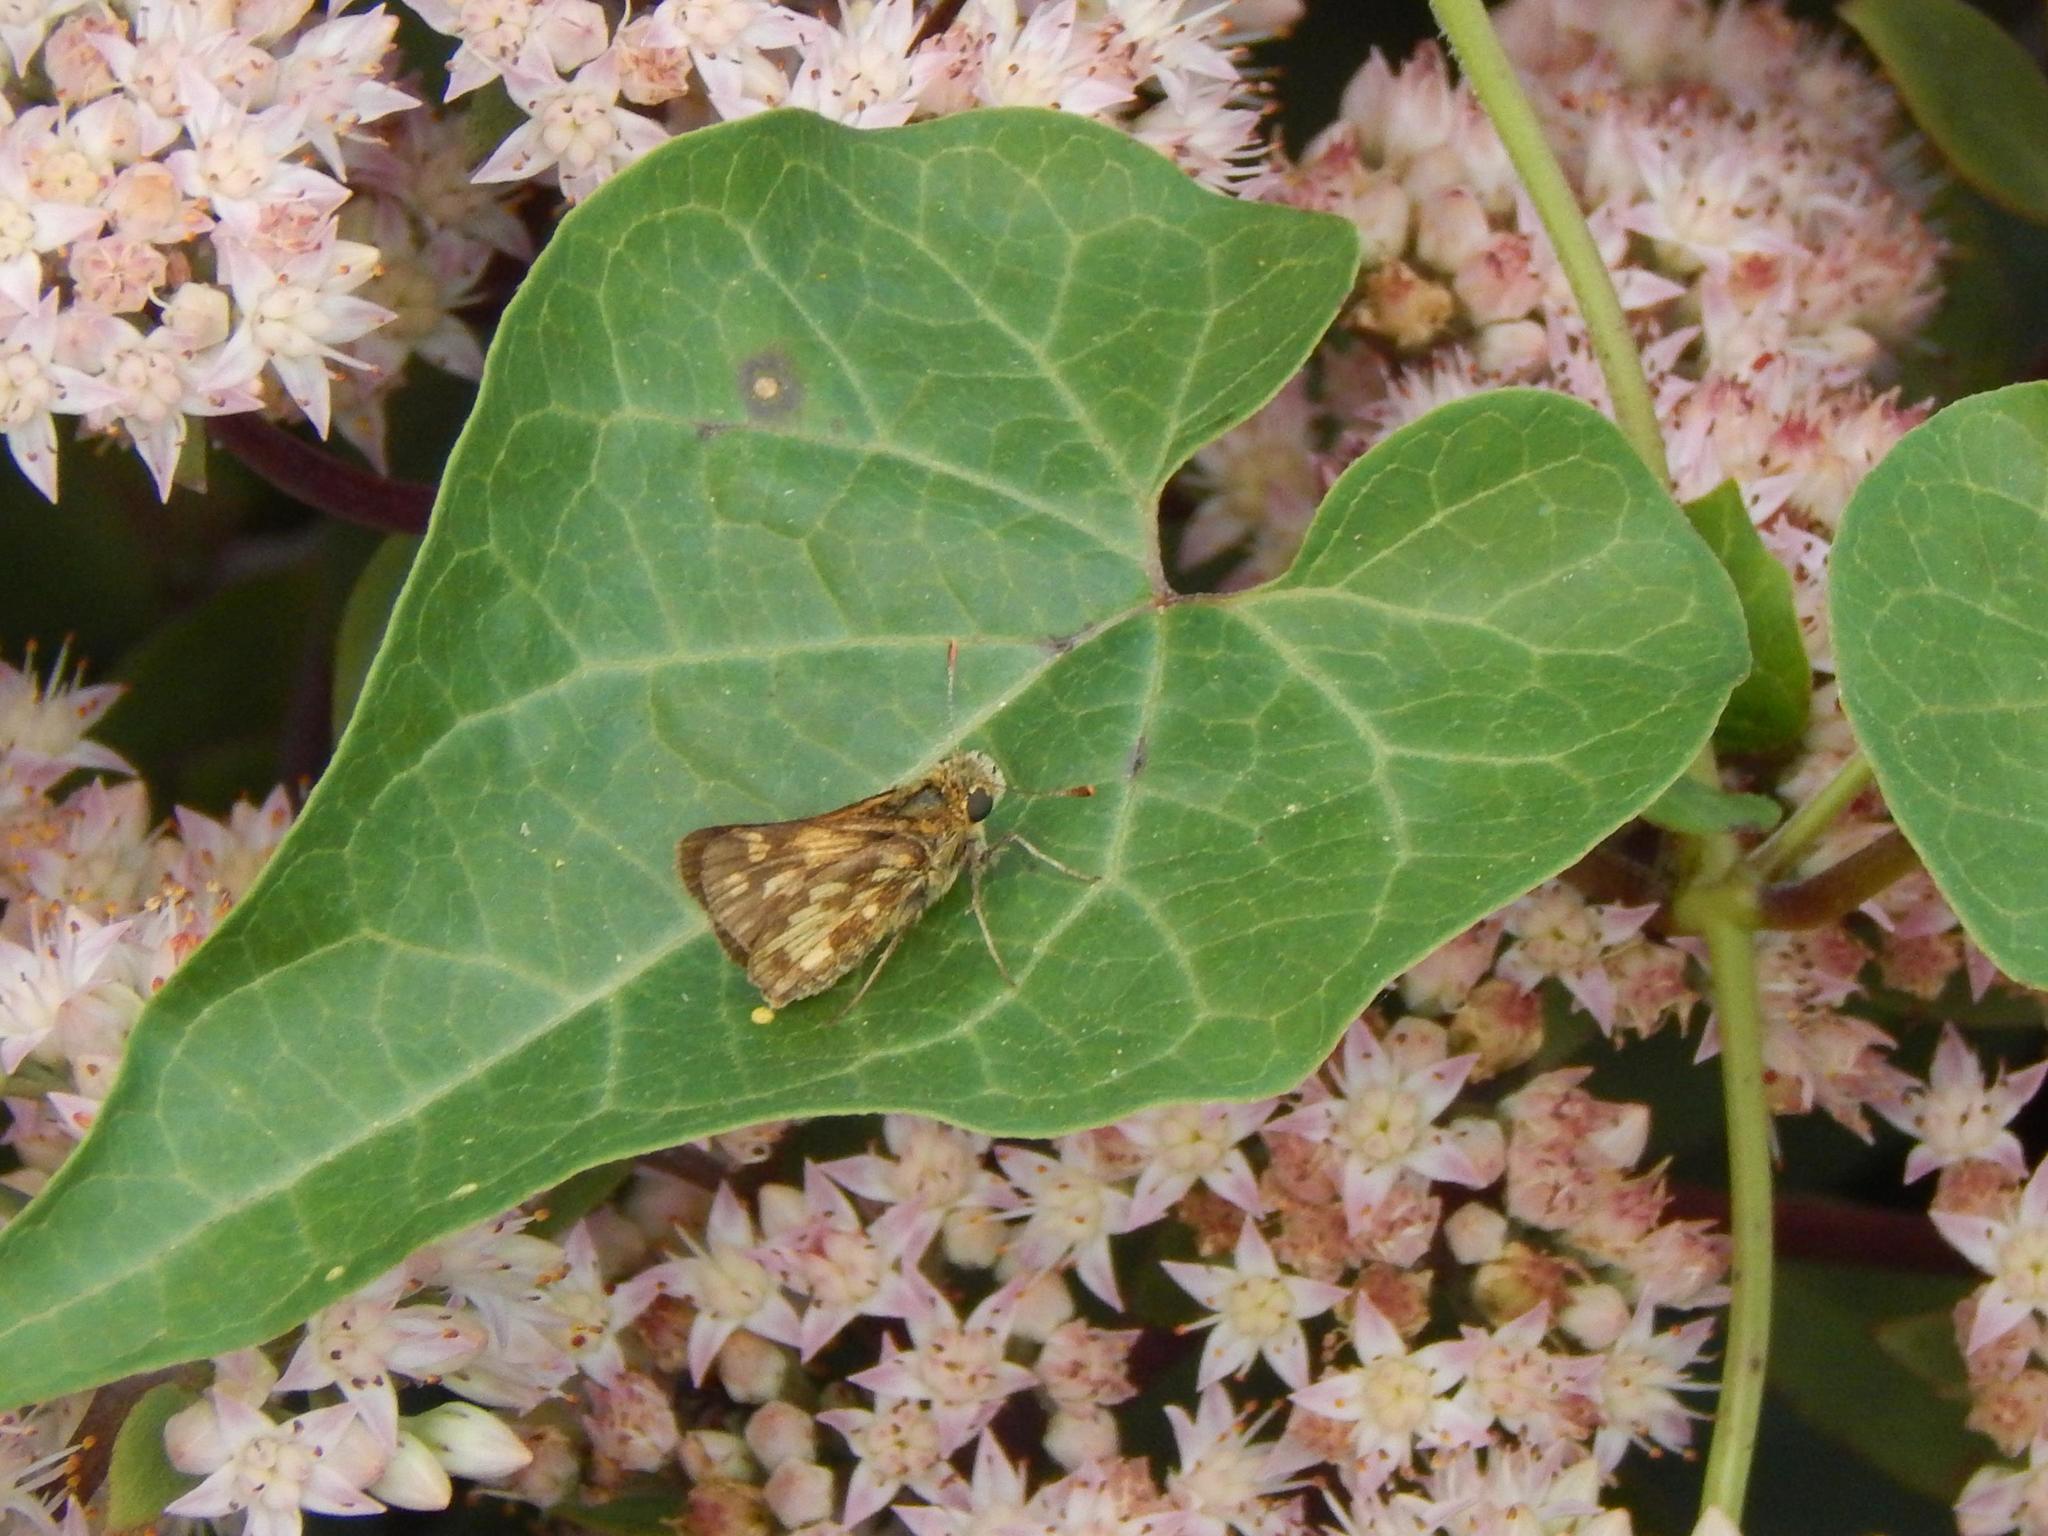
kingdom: Animalia
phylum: Arthropoda
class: Insecta
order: Lepidoptera
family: Hesperiidae
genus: Polites
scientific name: Polites coras
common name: Peck's skipper
